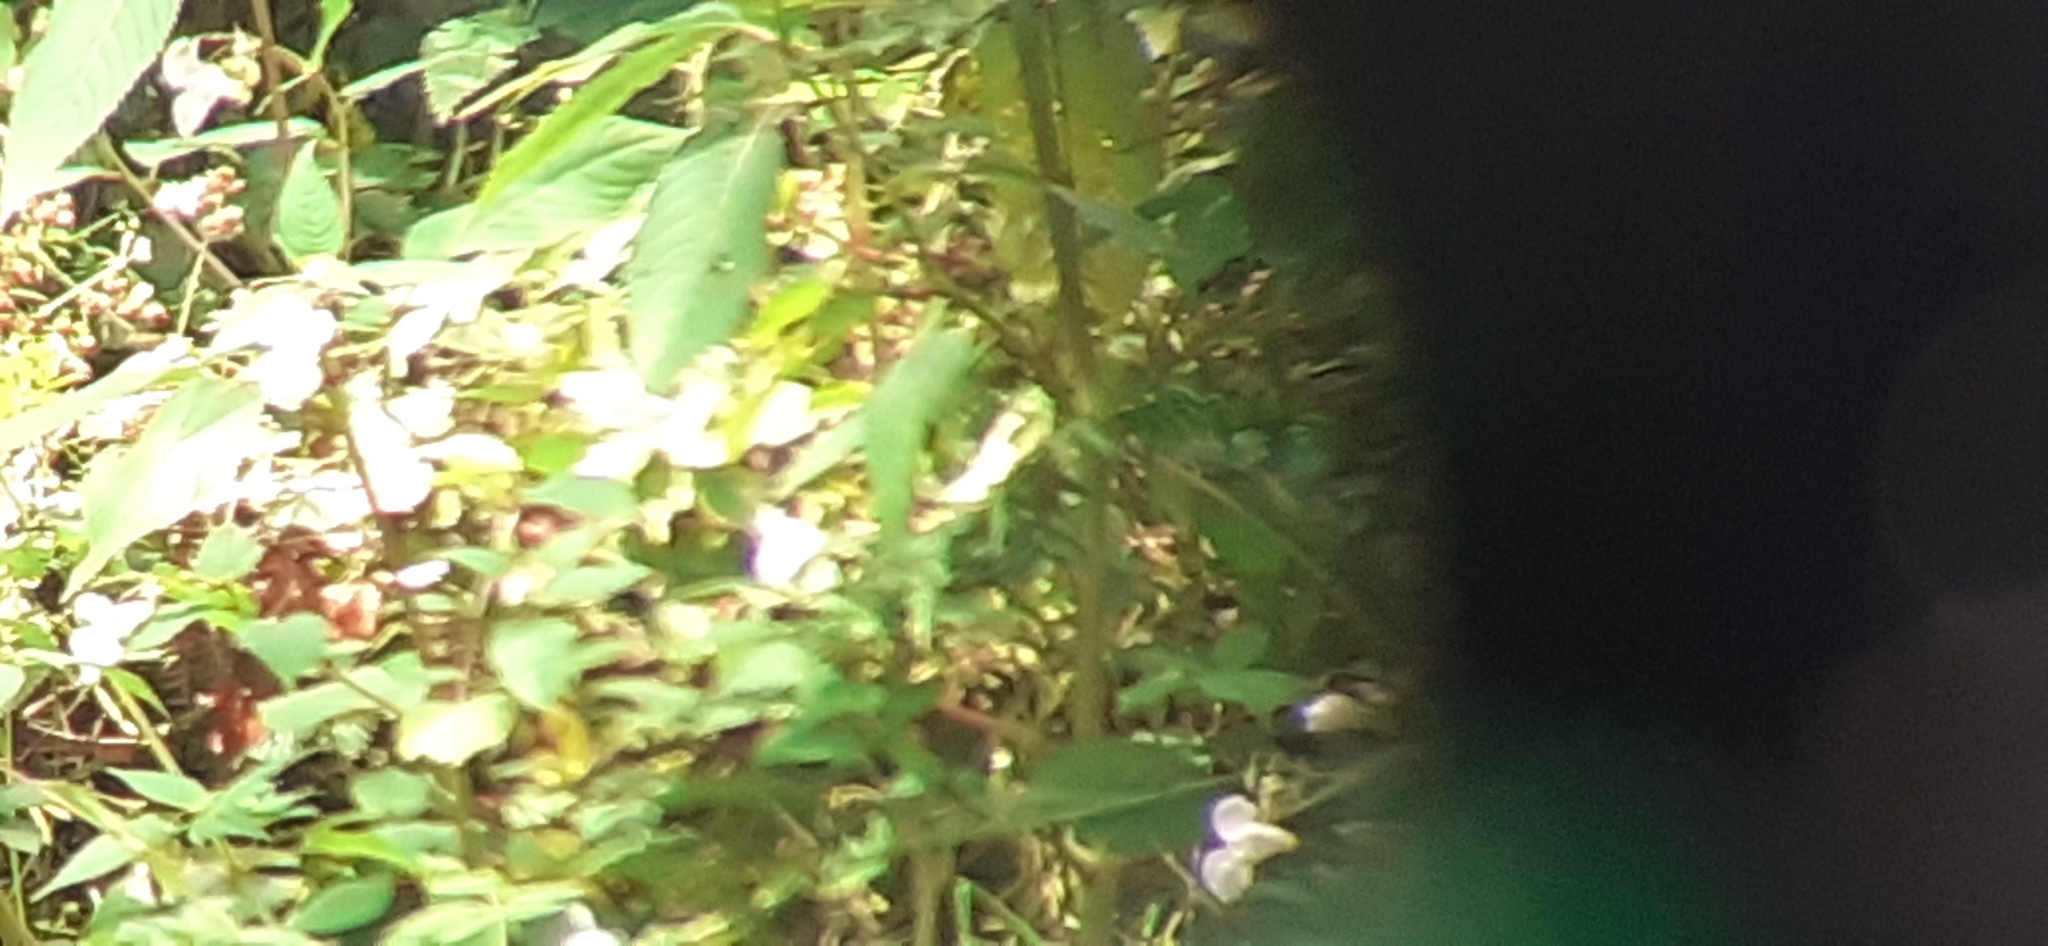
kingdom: Plantae
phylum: Tracheophyta
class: Magnoliopsida
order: Ericales
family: Balsaminaceae
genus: Impatiens
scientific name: Impatiens glandulifera
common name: Himalayan balsam
